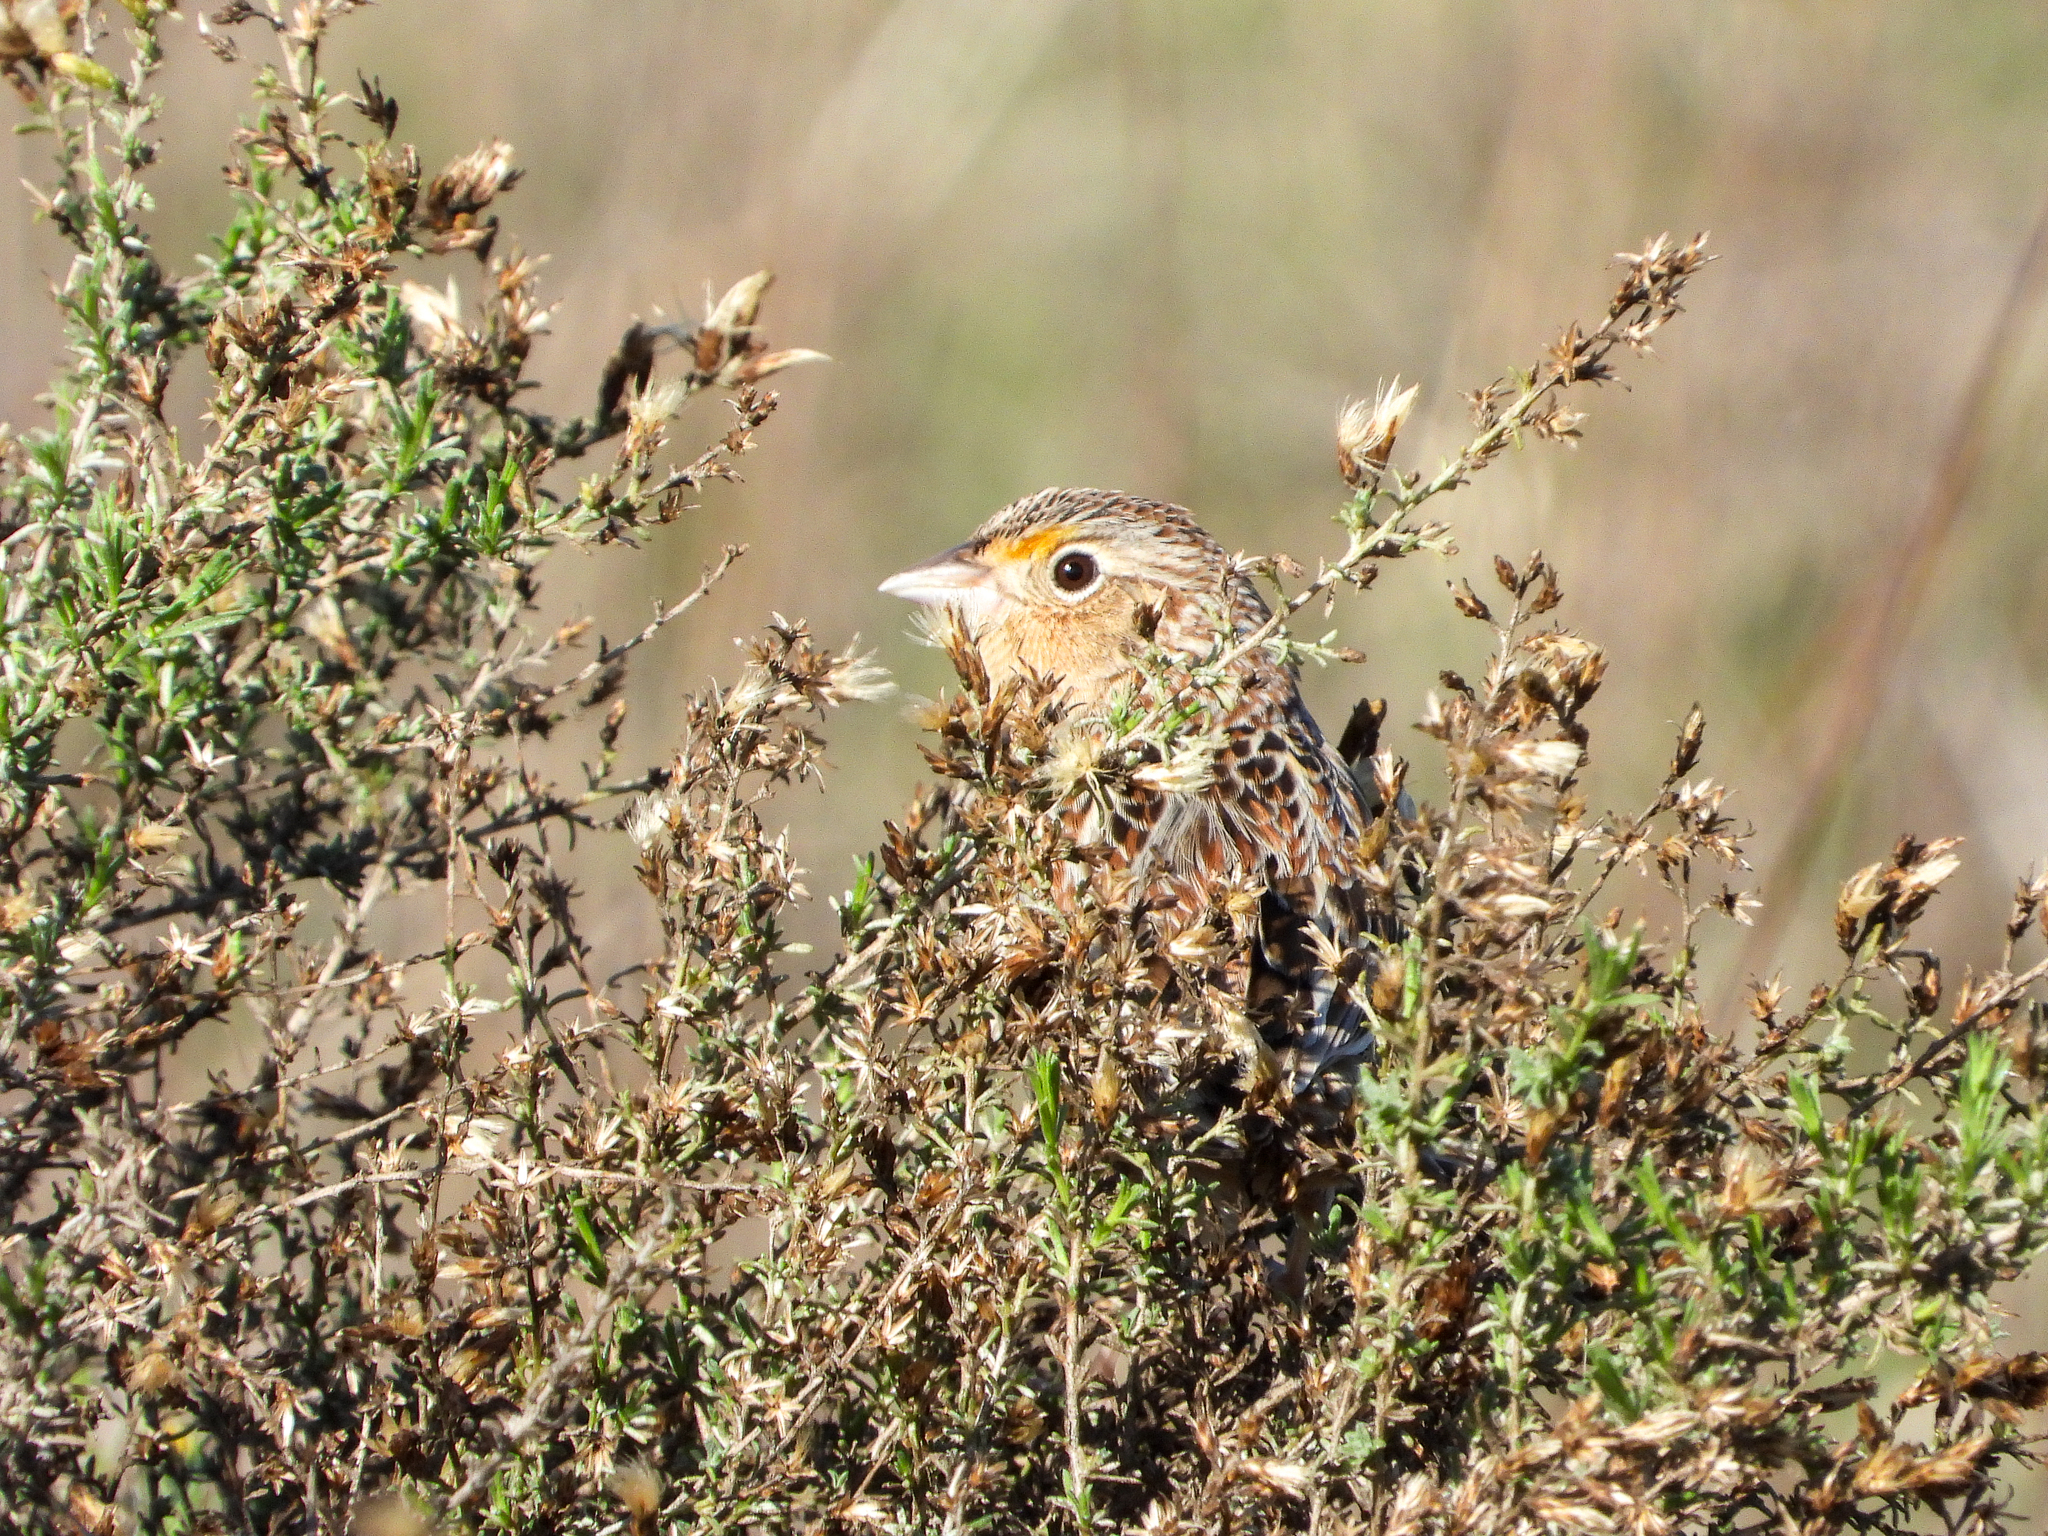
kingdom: Animalia
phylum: Chordata
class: Aves
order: Passeriformes
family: Passerellidae
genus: Ammodramus
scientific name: Ammodramus savannarum
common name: Grasshopper sparrow
